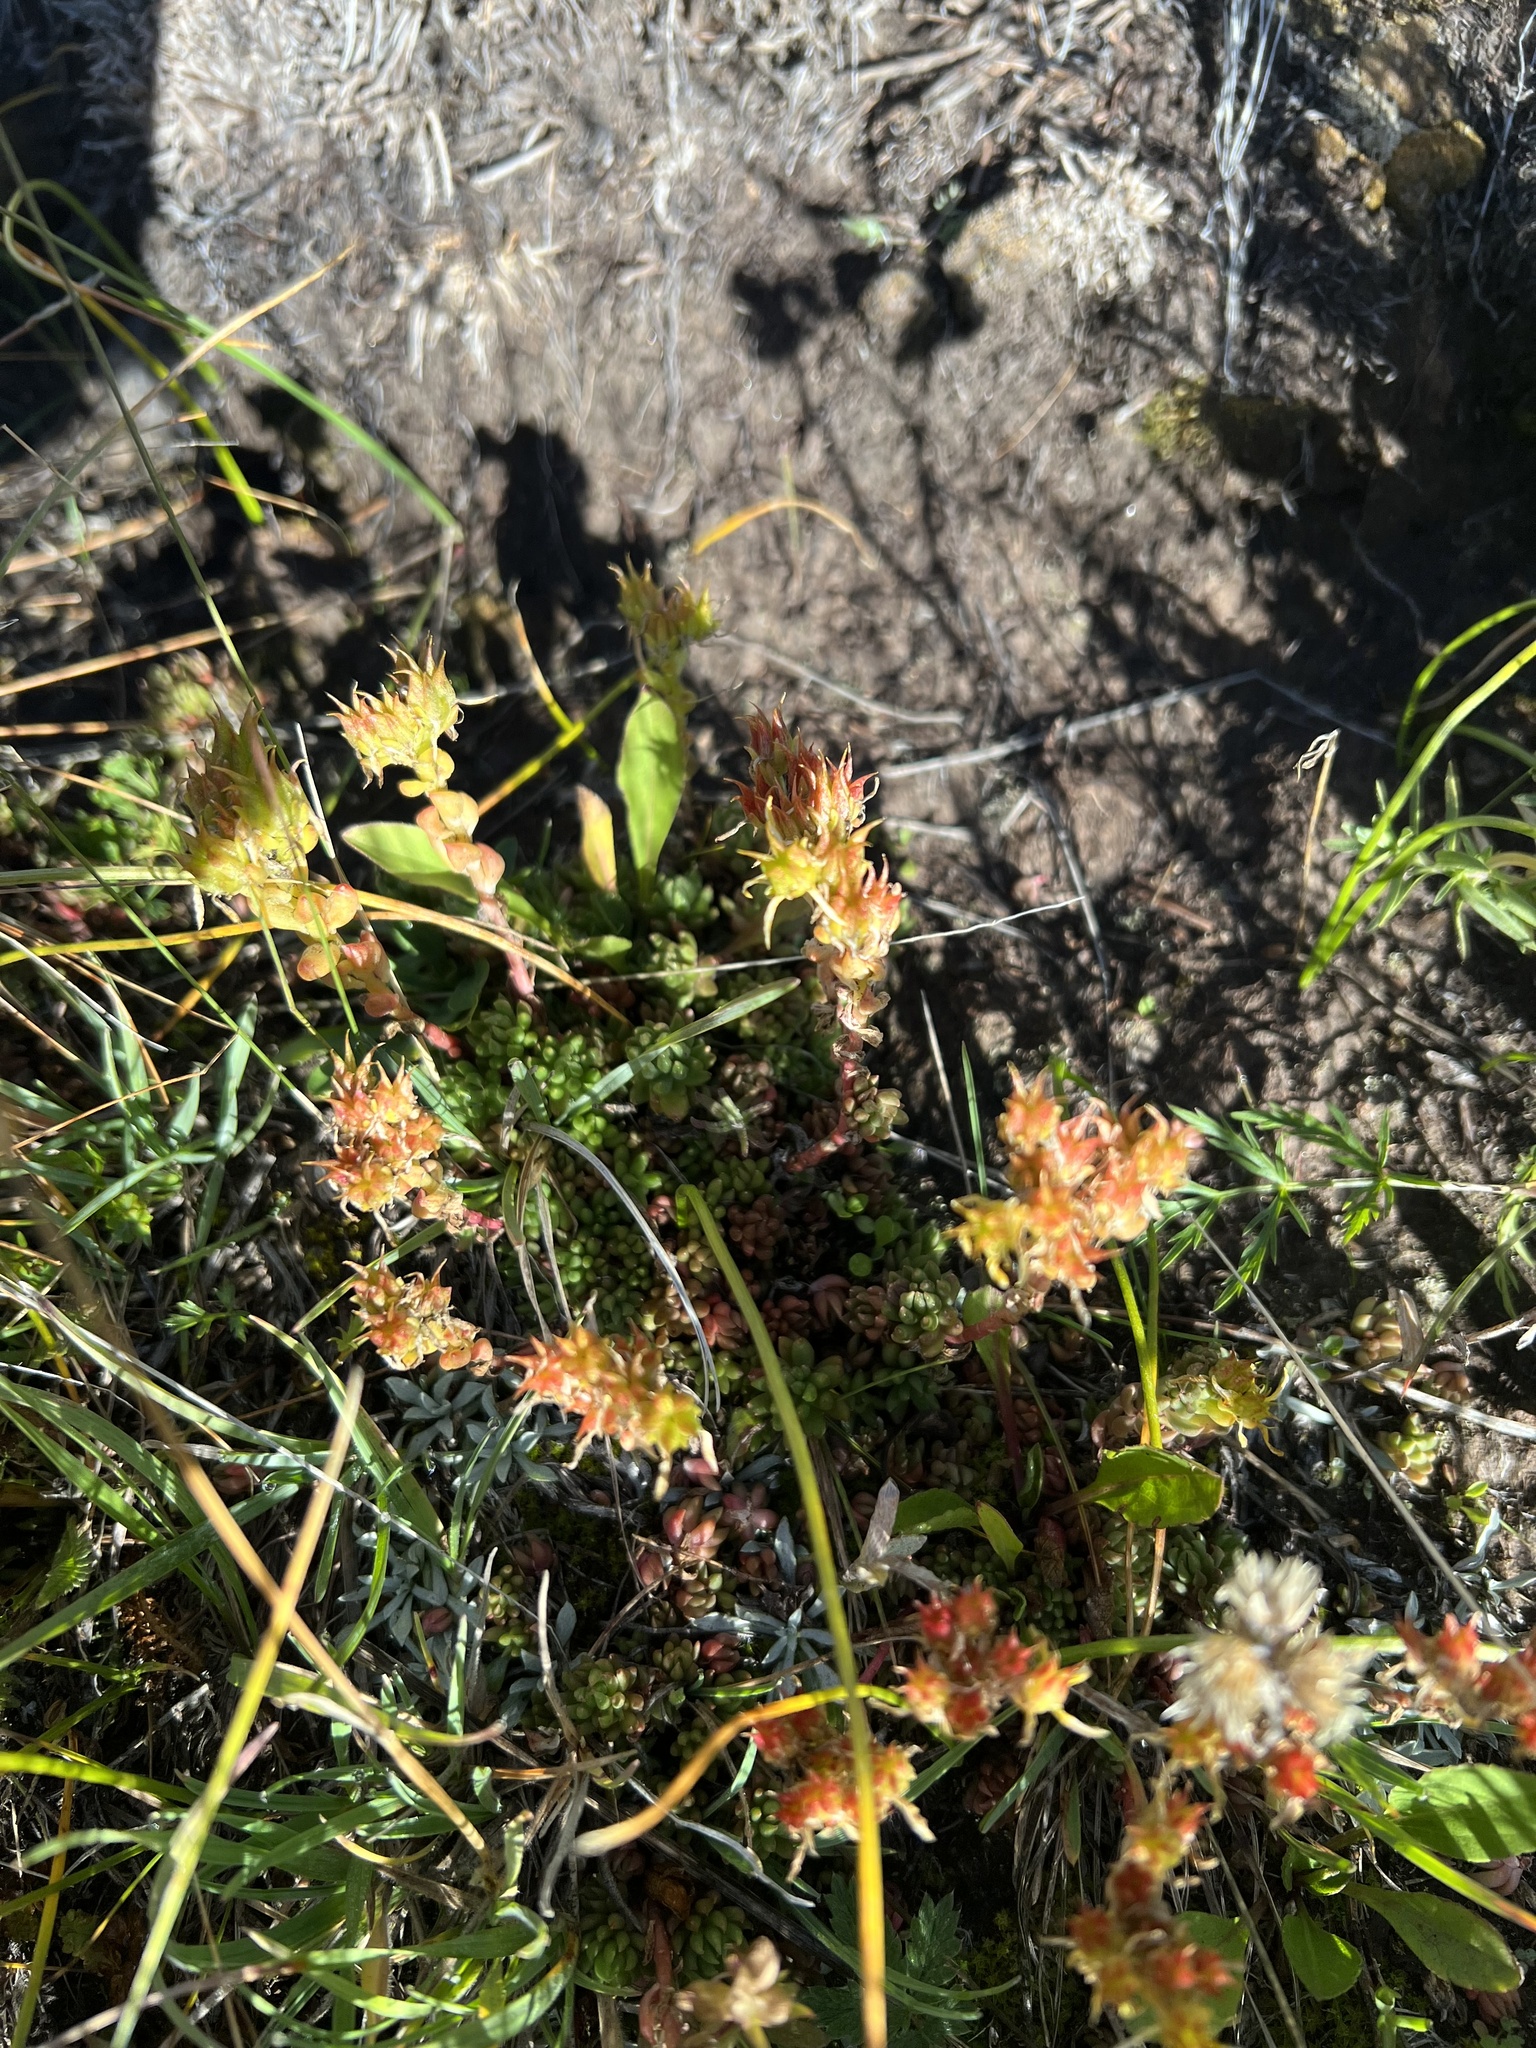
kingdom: Plantae
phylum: Tracheophyta
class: Magnoliopsida
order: Saxifragales
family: Crassulaceae
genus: Sedum
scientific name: Sedum lanceolatum
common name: Common stonecrop
